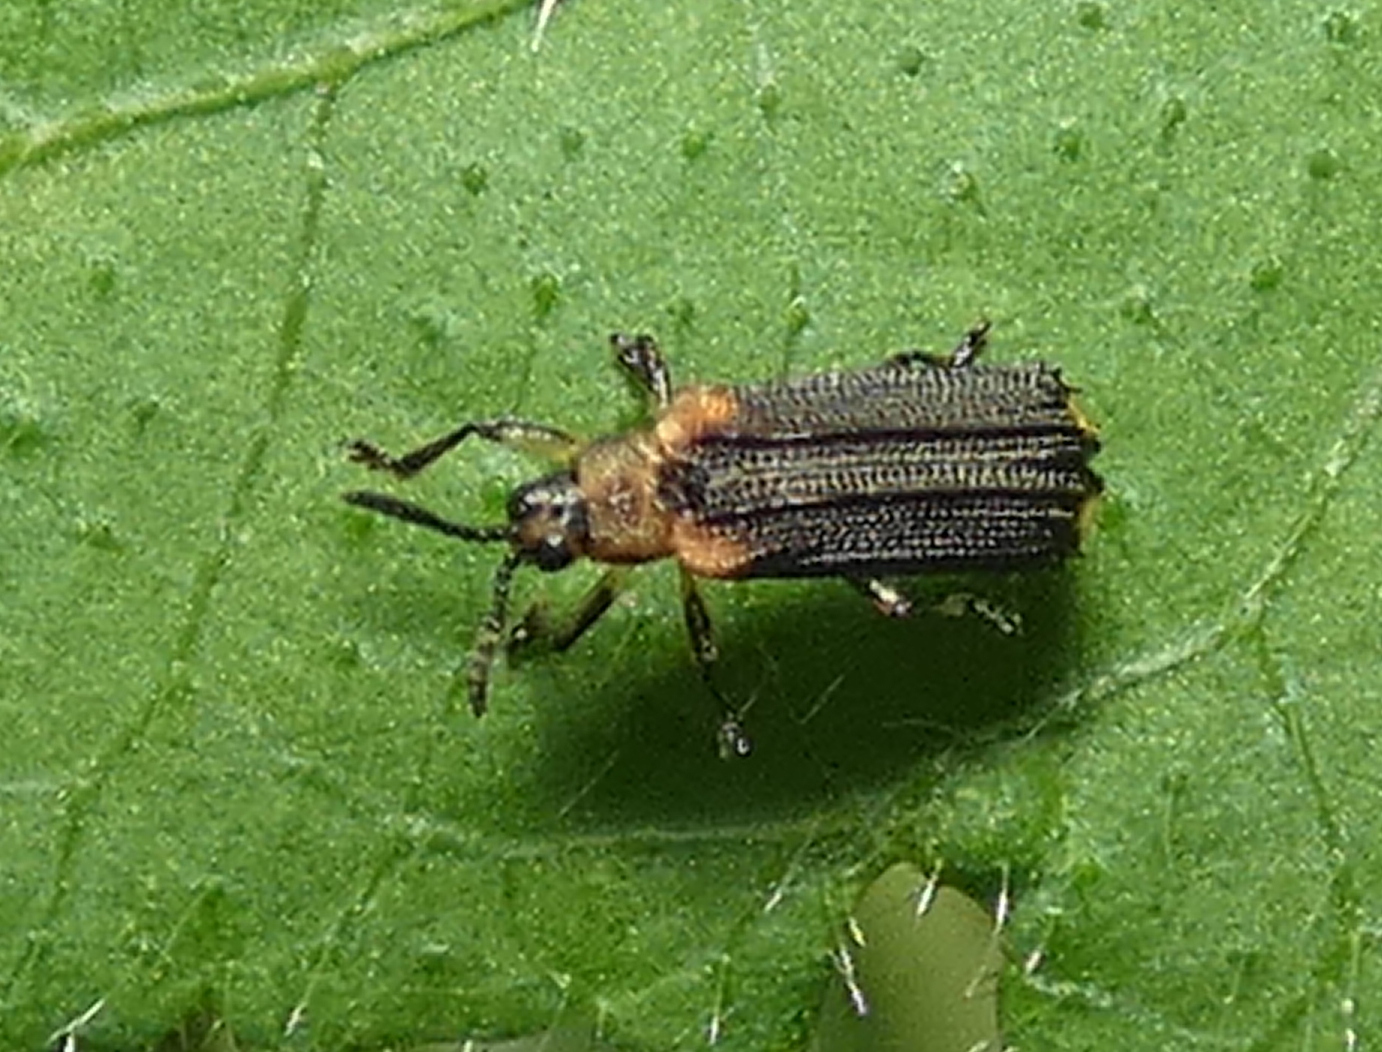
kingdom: Animalia
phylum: Arthropoda
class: Insecta
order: Coleoptera
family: Chrysomelidae
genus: Heterispa
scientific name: Heterispa vinula
